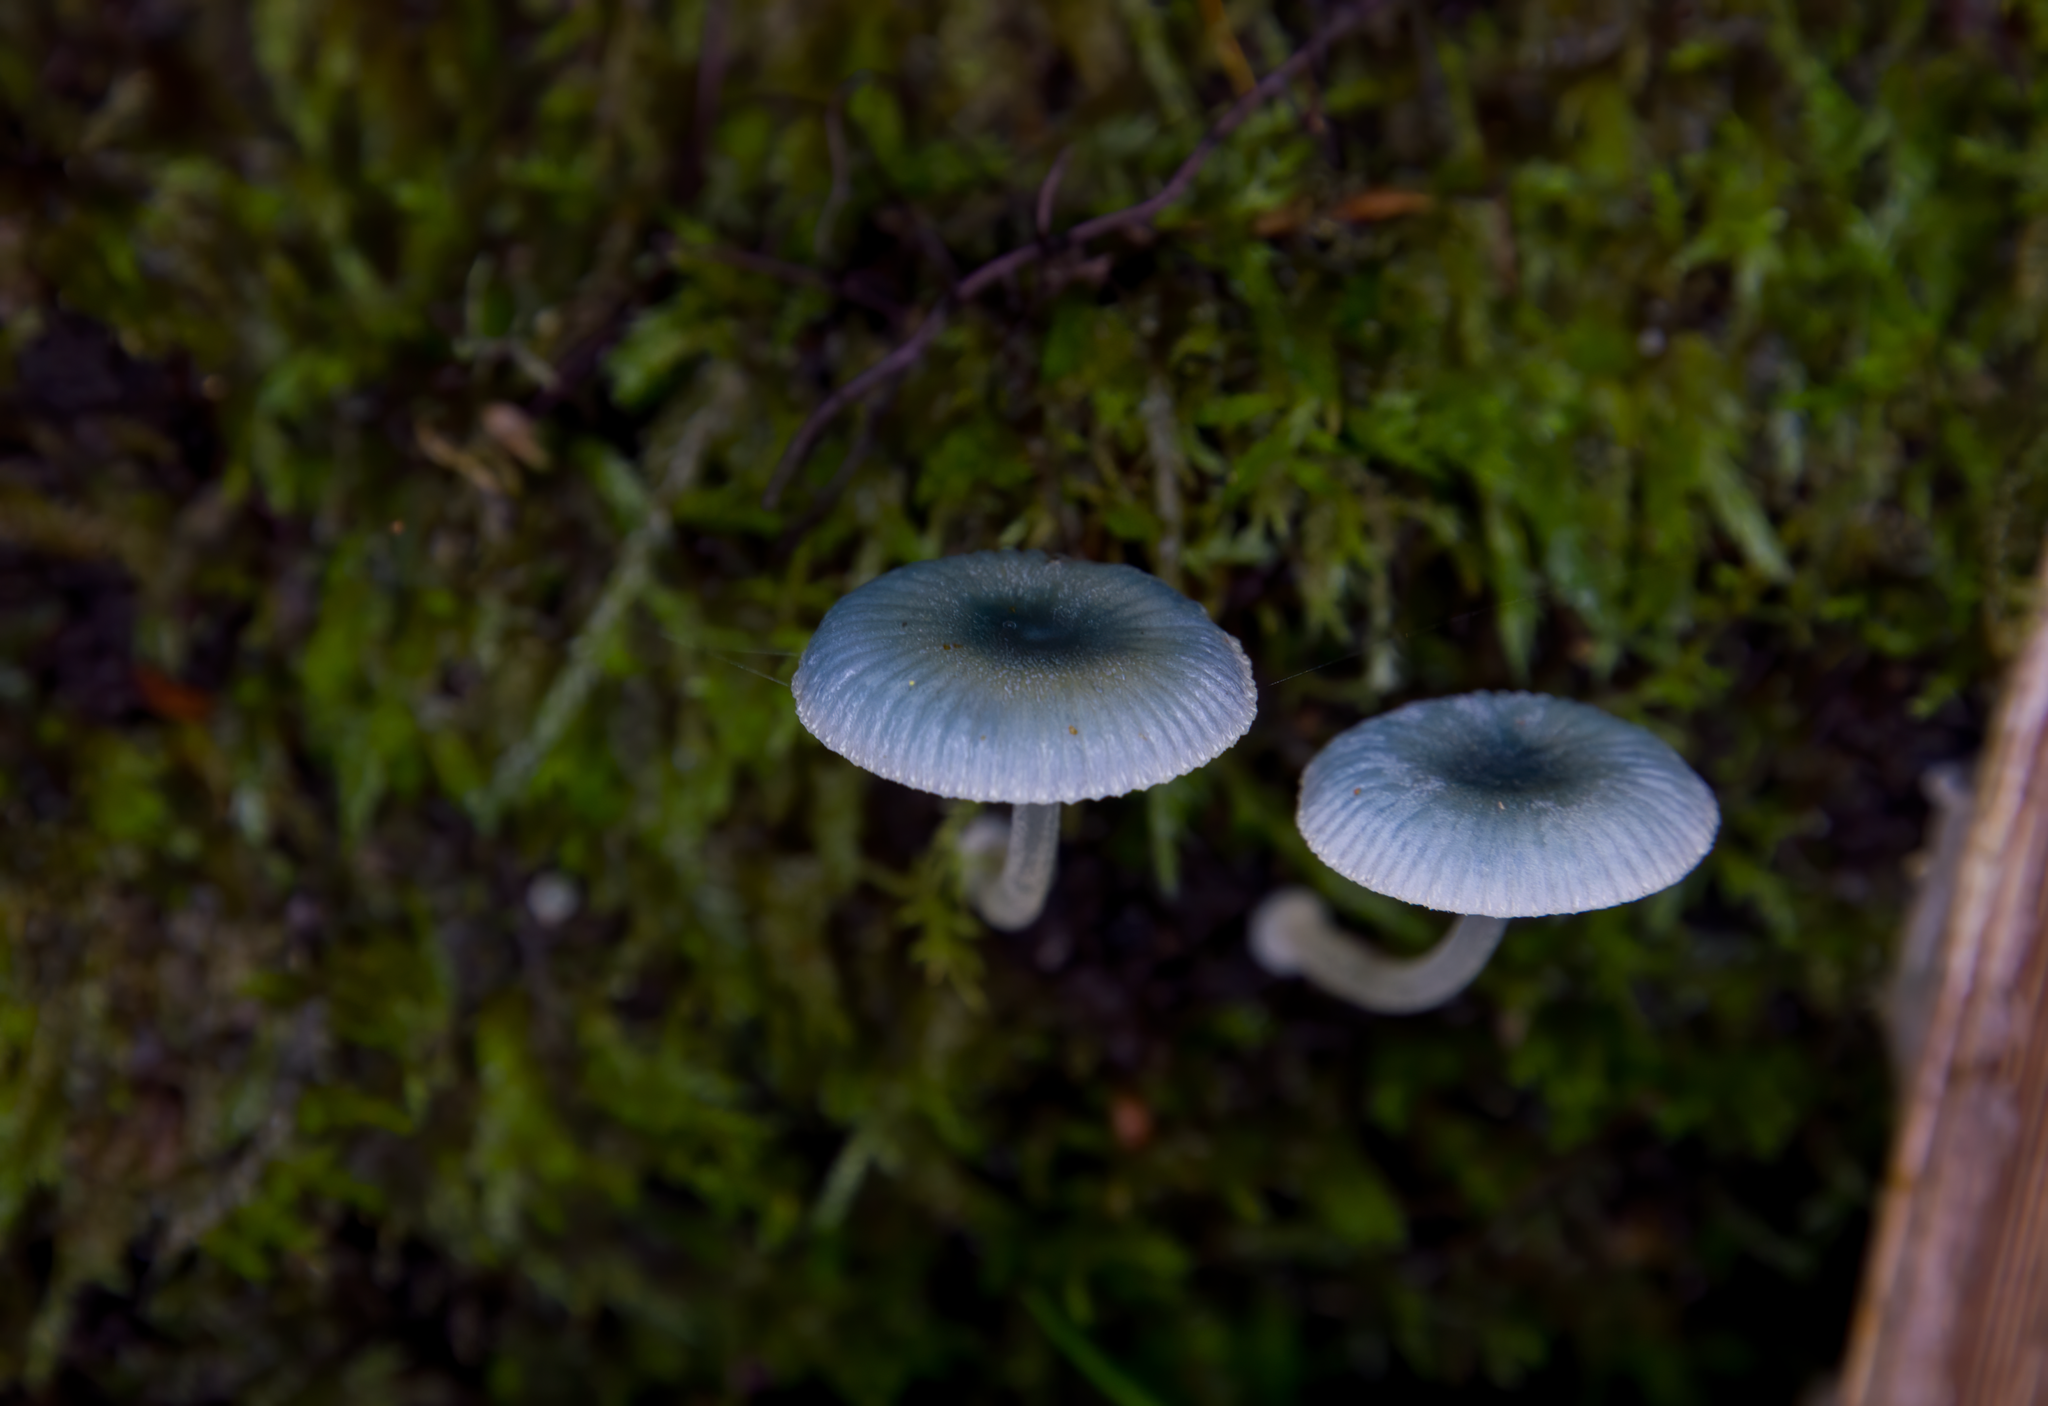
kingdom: Fungi
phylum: Basidiomycota
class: Agaricomycetes
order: Agaricales
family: Mycenaceae
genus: Mycena
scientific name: Mycena interrupta
